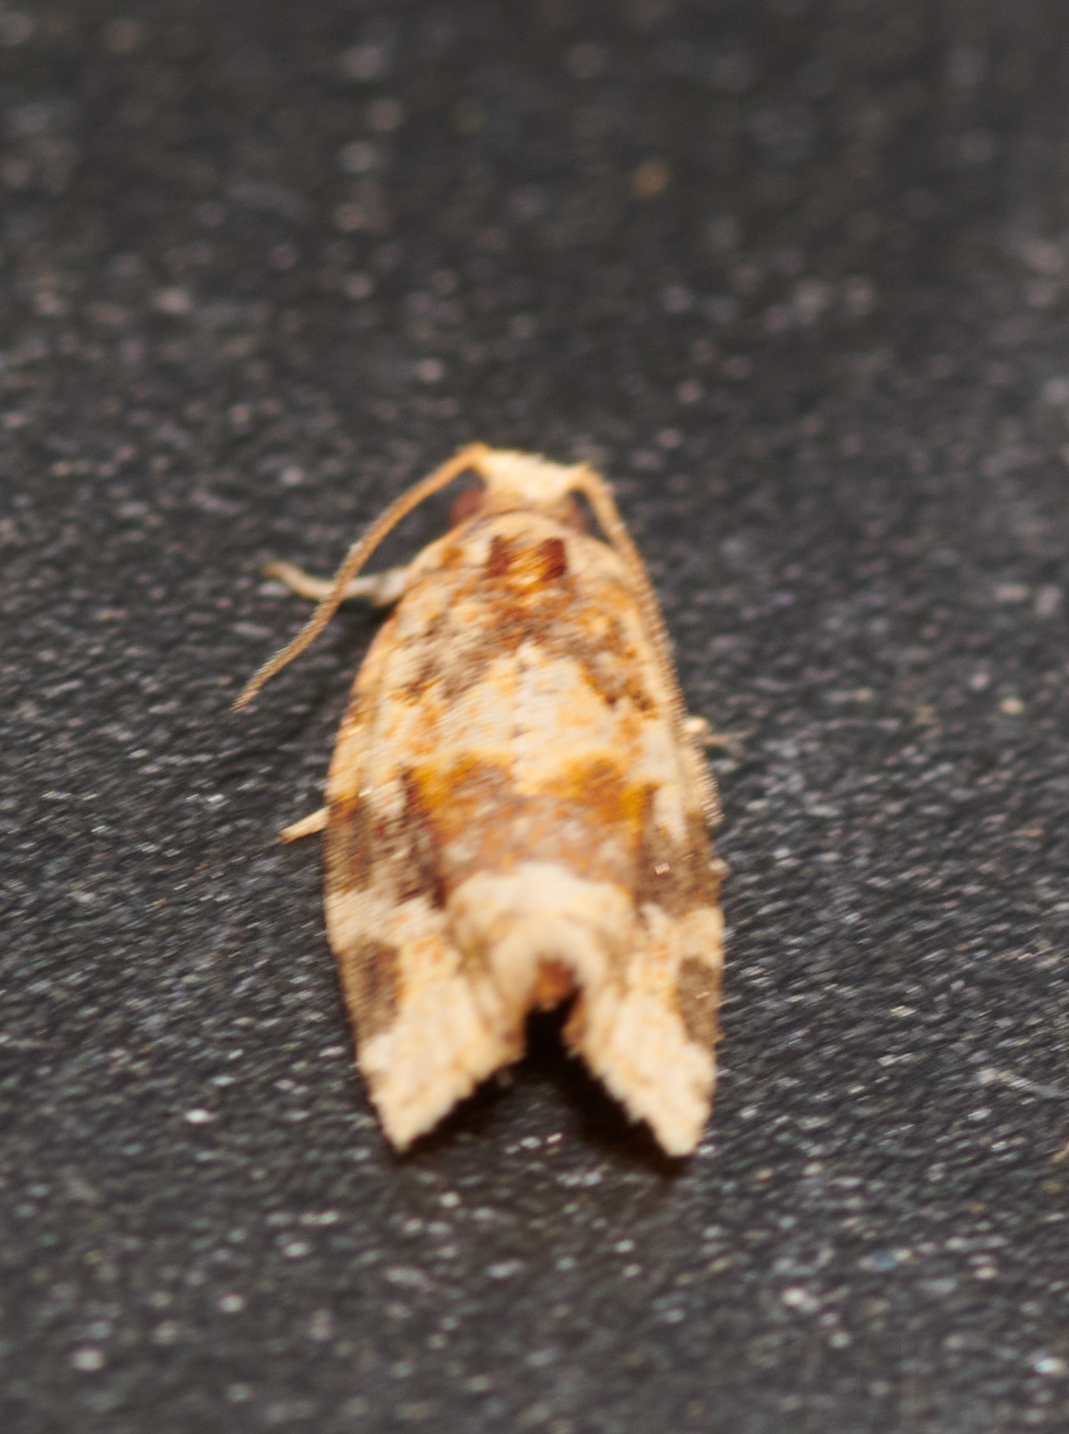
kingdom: Animalia
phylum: Arthropoda
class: Insecta
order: Lepidoptera
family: Tortricidae
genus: Argyrotaenia
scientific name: Argyrotaenia velutinana
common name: Red-banded leafroller moth
